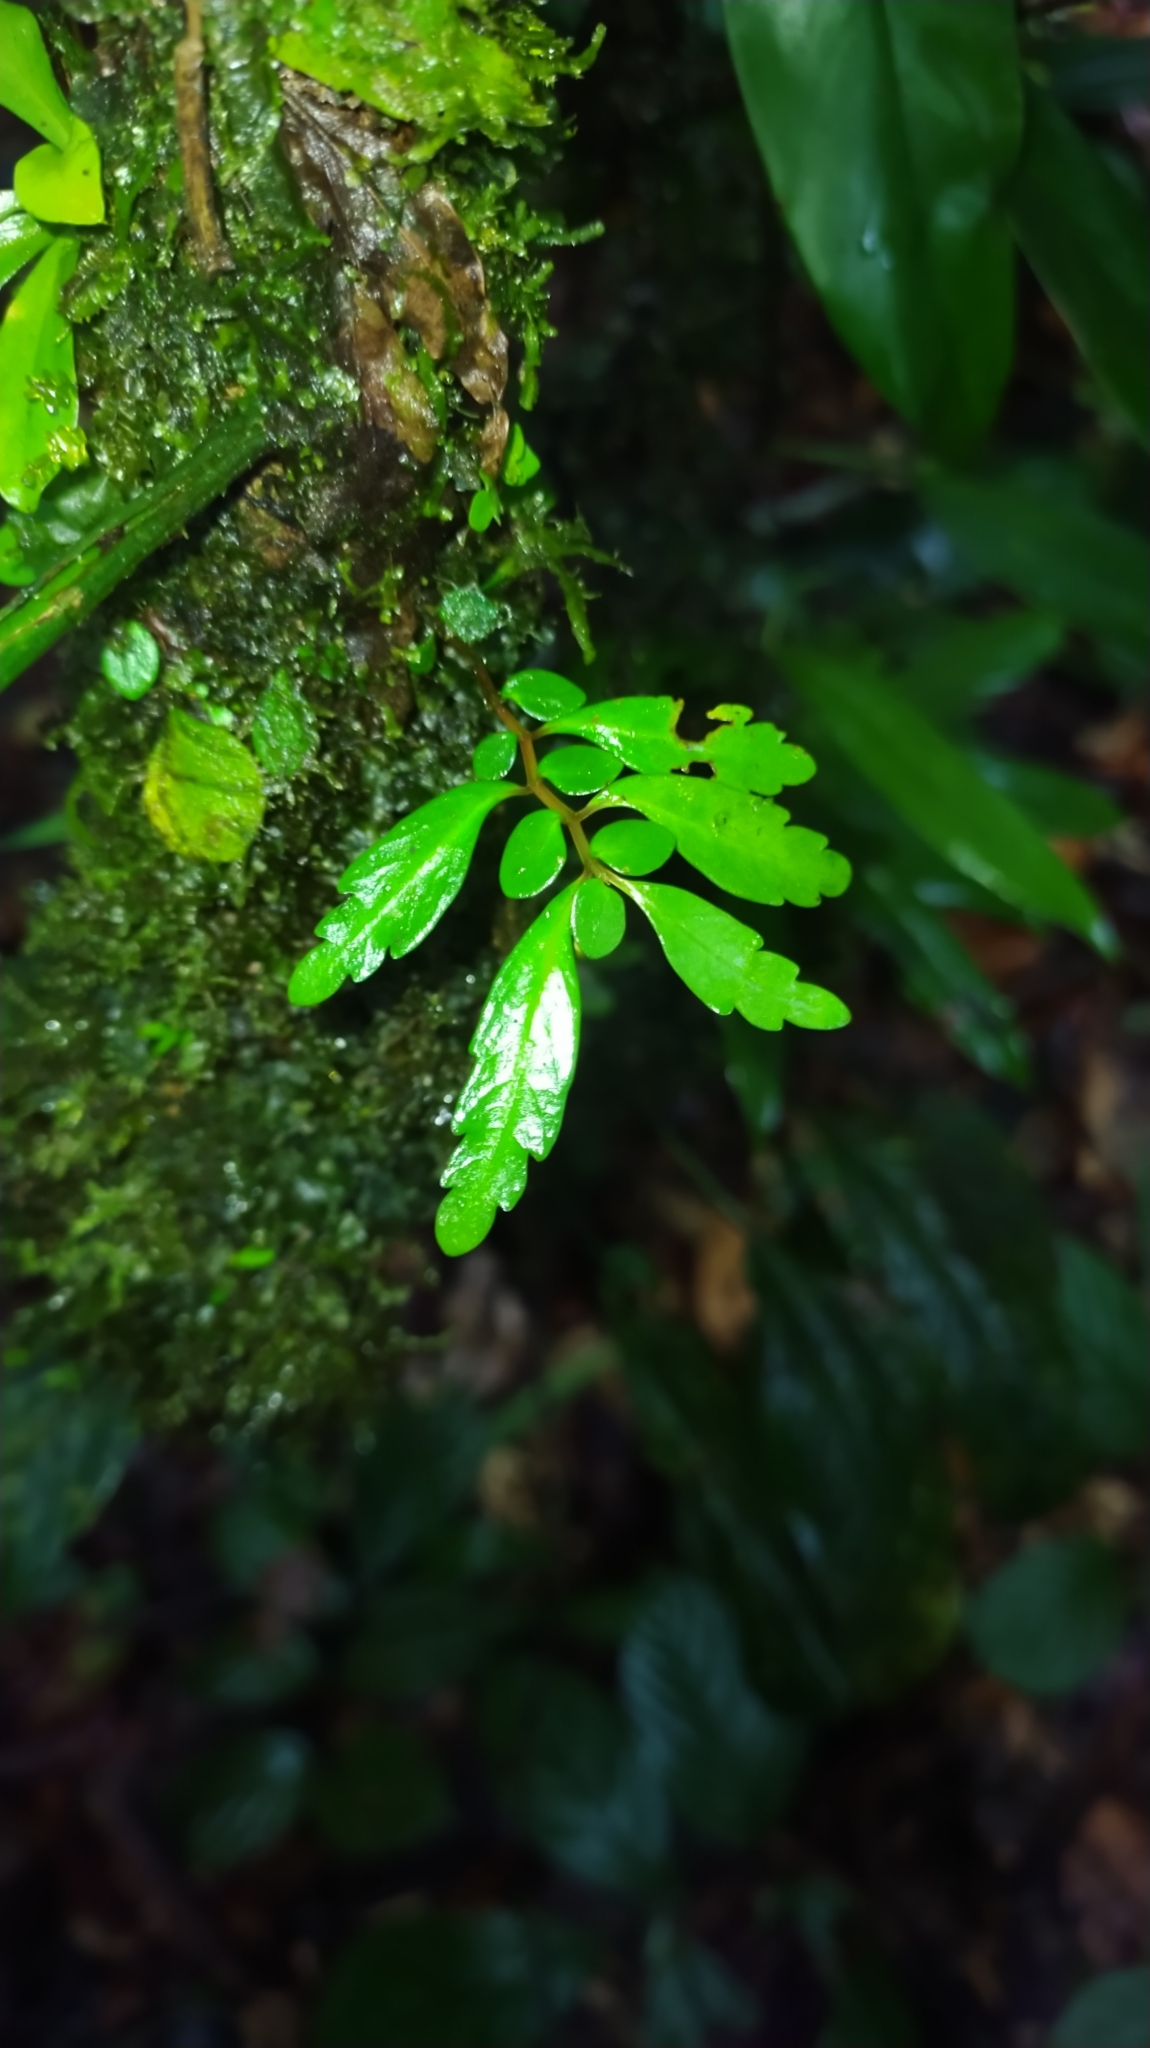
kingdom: Plantae
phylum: Tracheophyta
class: Magnoliopsida
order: Rosales
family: Urticaceae
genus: Pilea
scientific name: Pilea imparifolia
